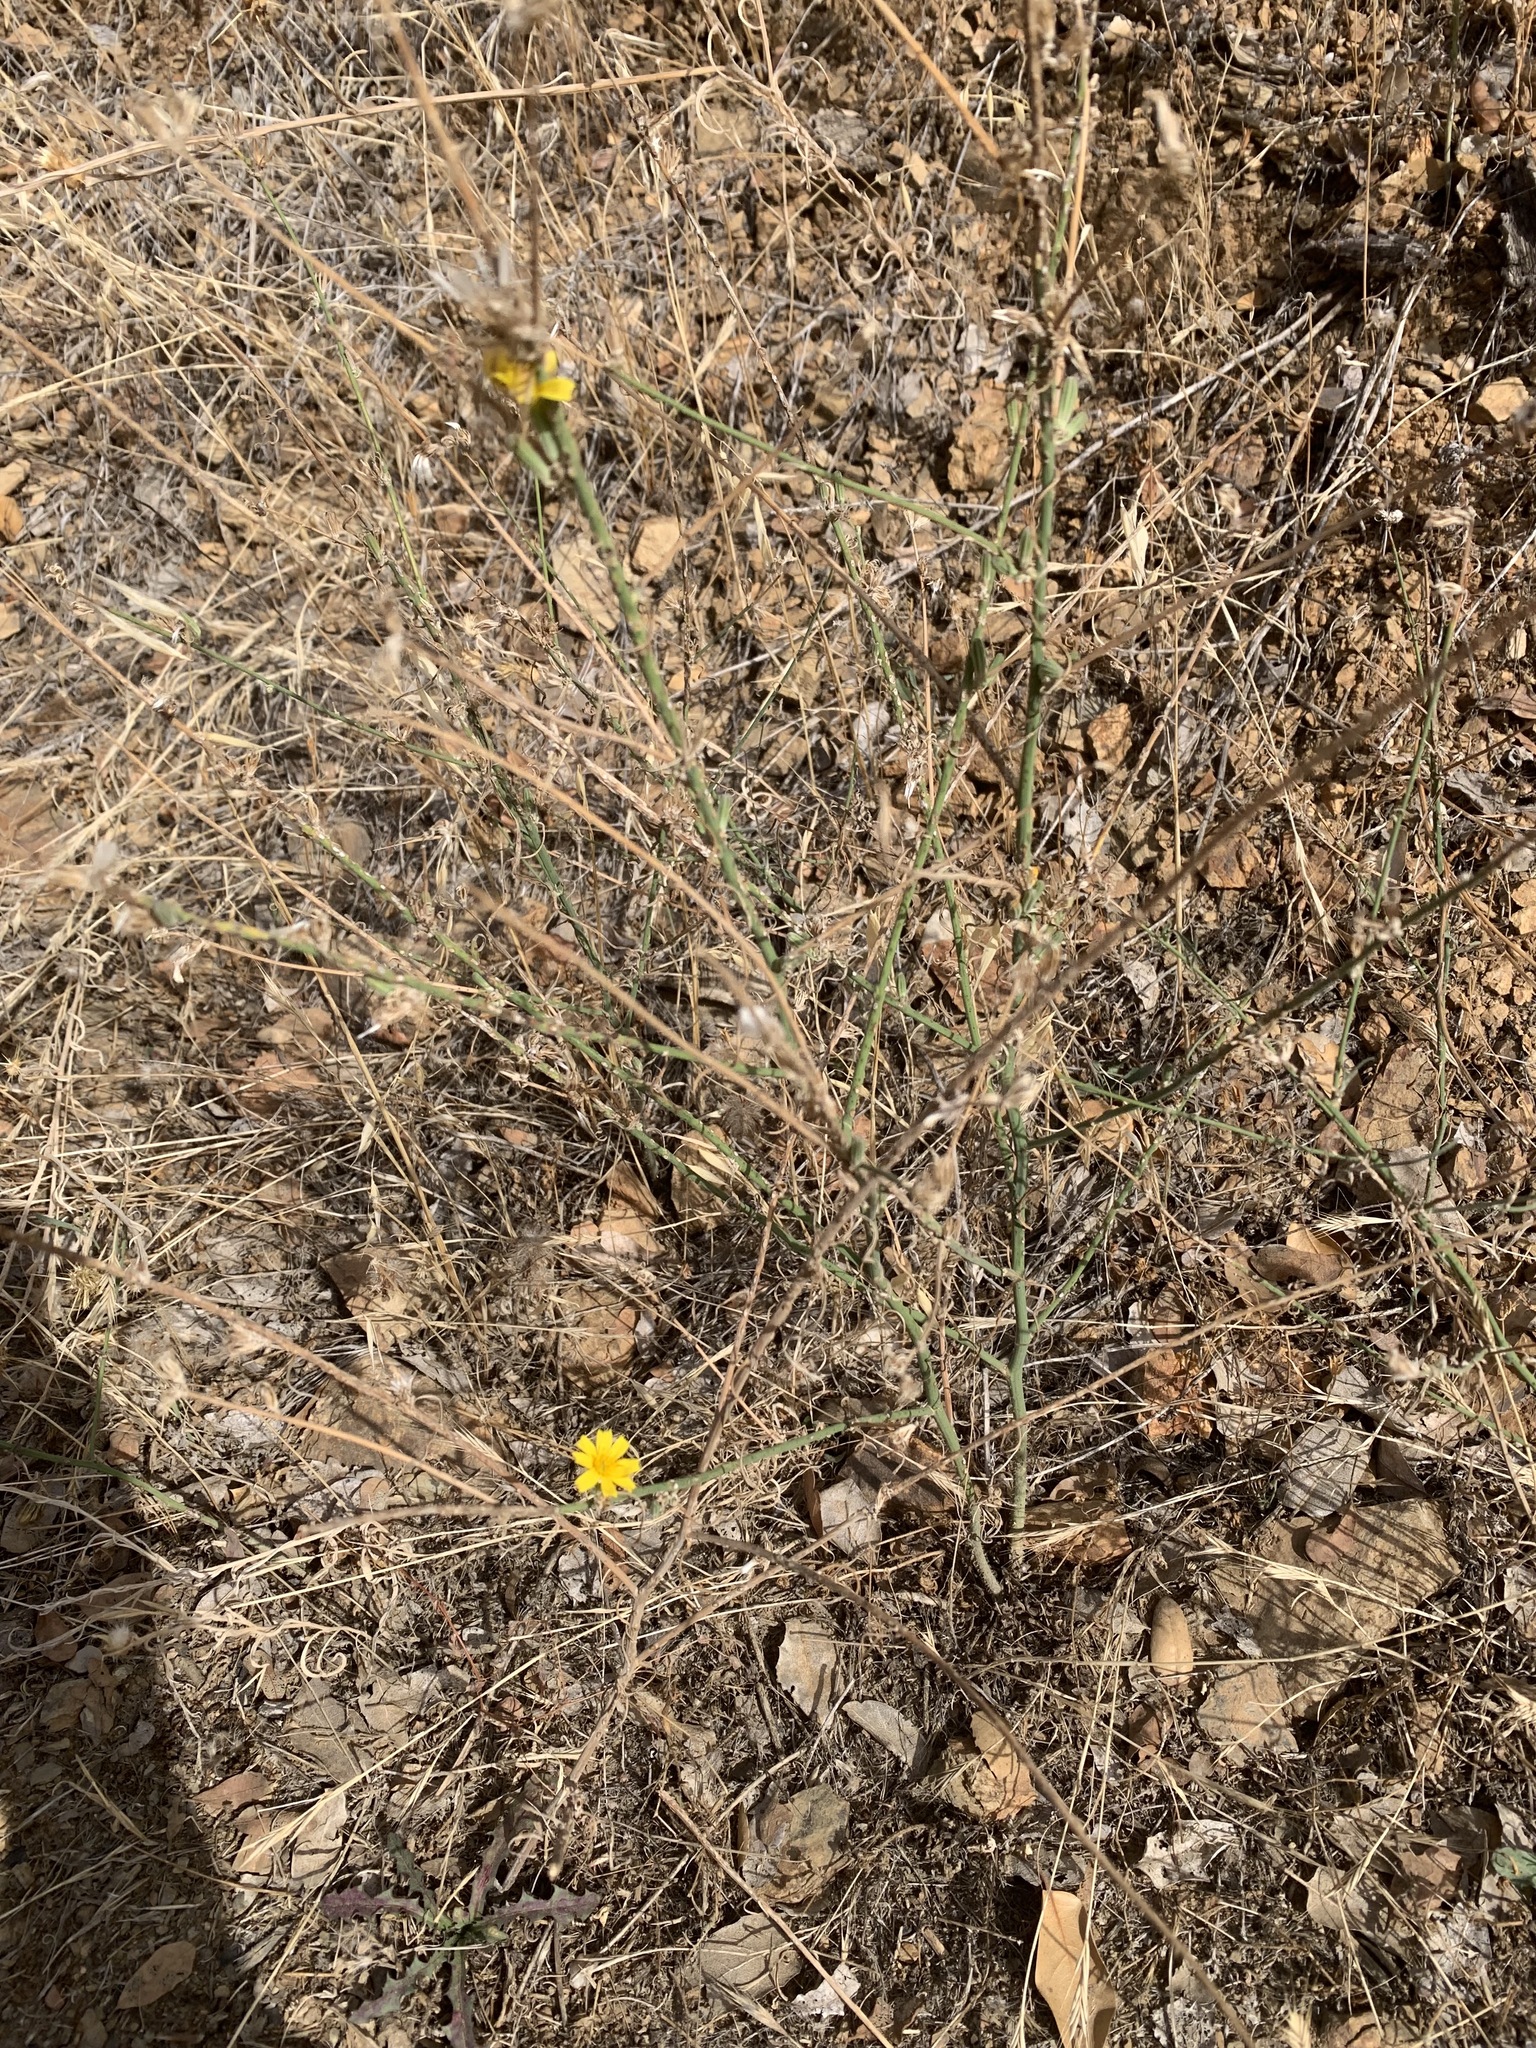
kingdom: Plantae
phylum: Tracheophyta
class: Magnoliopsida
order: Asterales
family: Asteraceae
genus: Chondrilla
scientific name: Chondrilla juncea
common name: Skeleton weed
